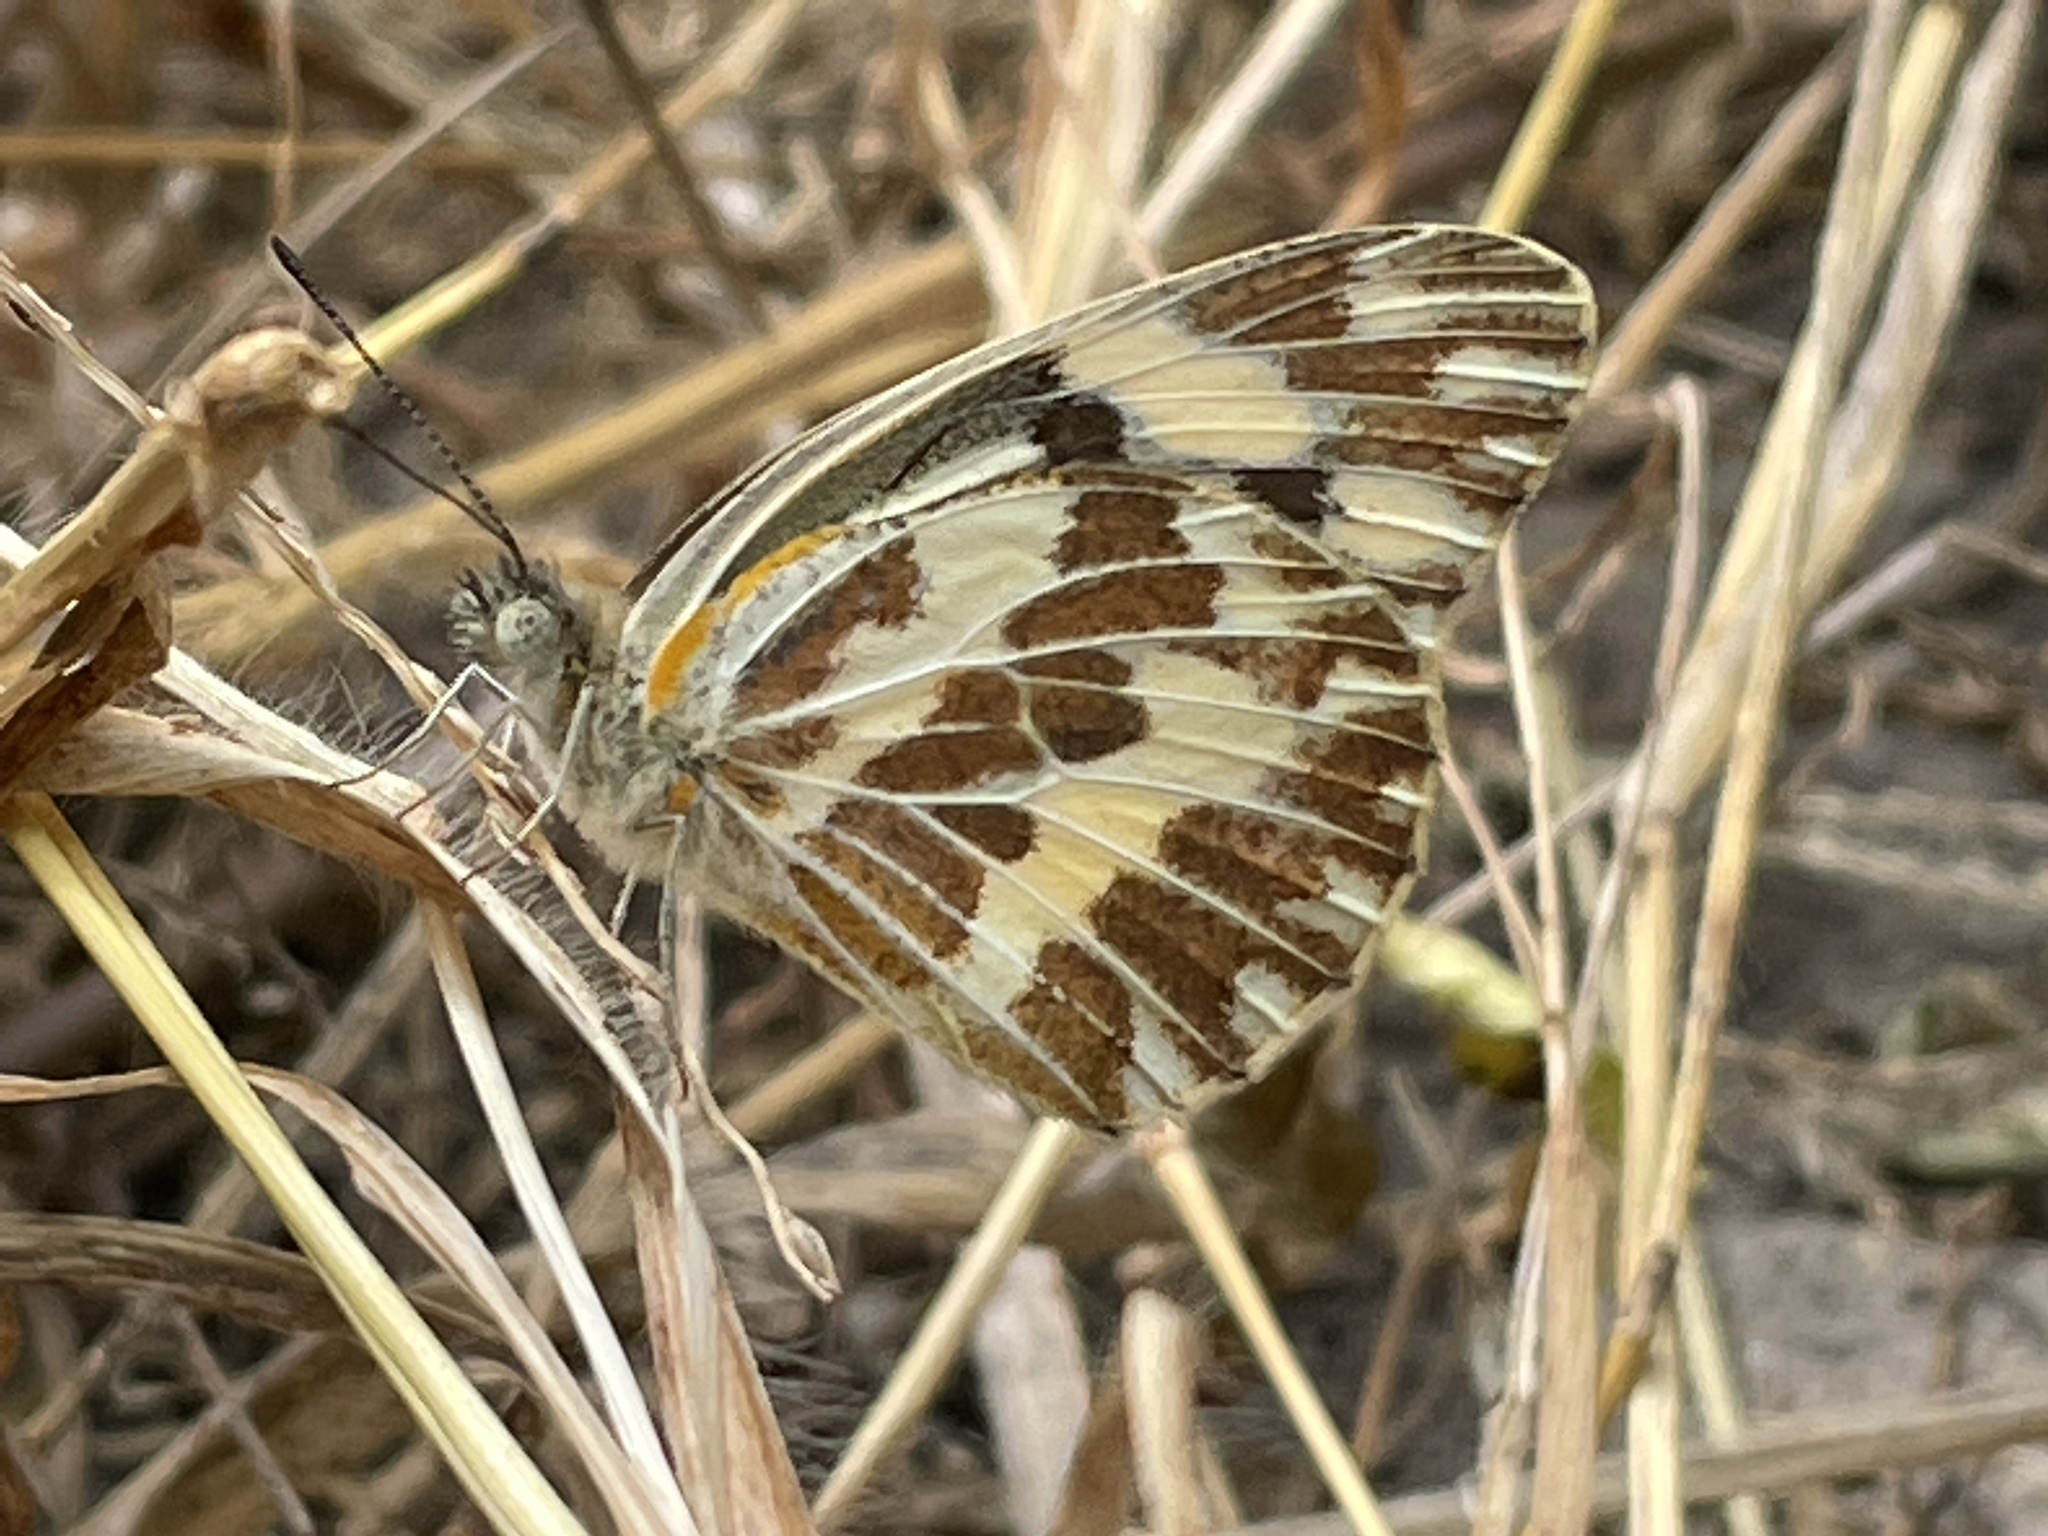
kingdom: Animalia
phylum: Arthropoda
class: Insecta
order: Lepidoptera
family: Pieridae
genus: Pinacopteryx
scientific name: Pinacopteryx eriphia
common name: Zebra white
